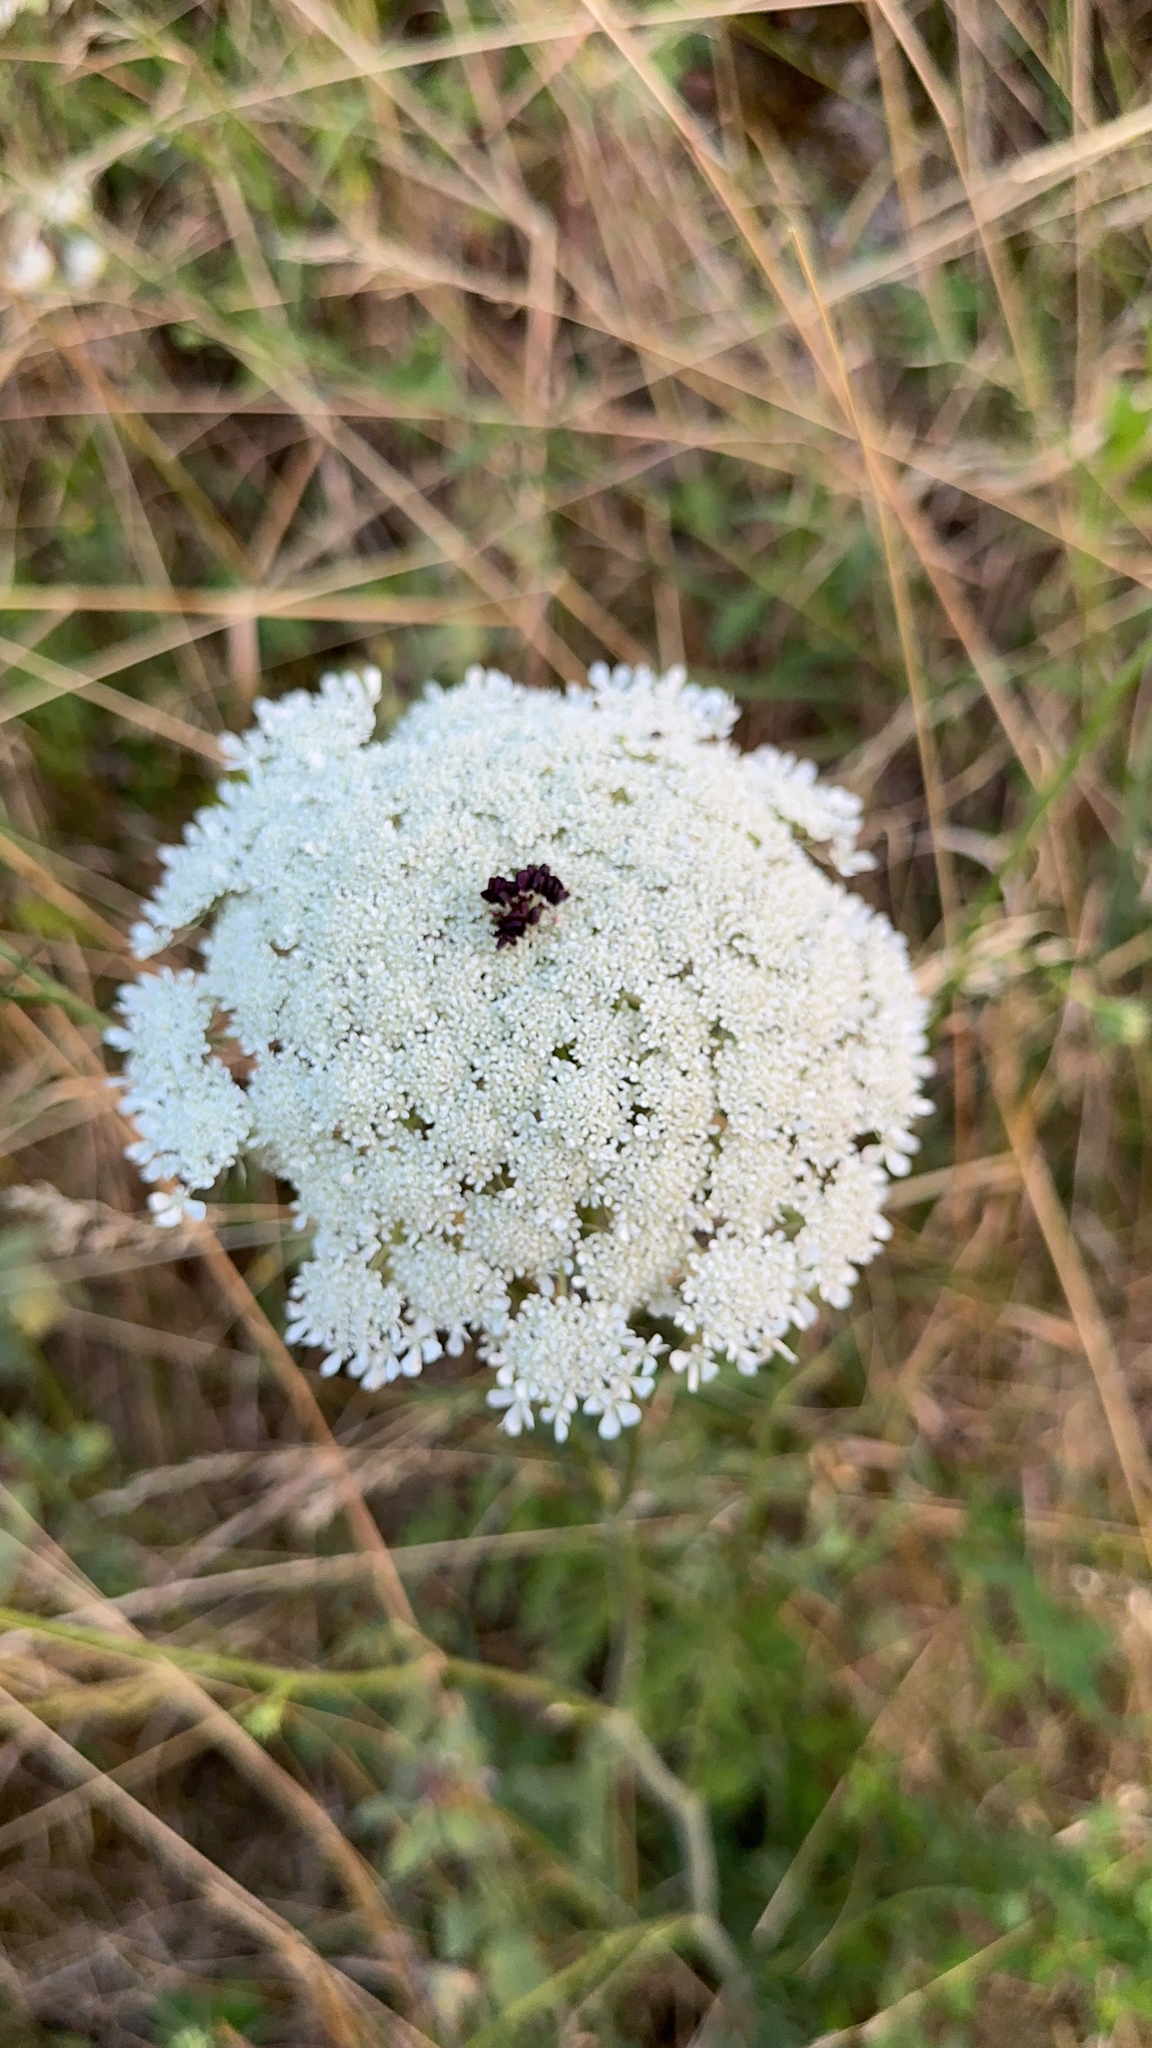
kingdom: Plantae
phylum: Tracheophyta
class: Magnoliopsida
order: Apiales
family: Apiaceae
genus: Daucus
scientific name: Daucus carota
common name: Wild carrot
